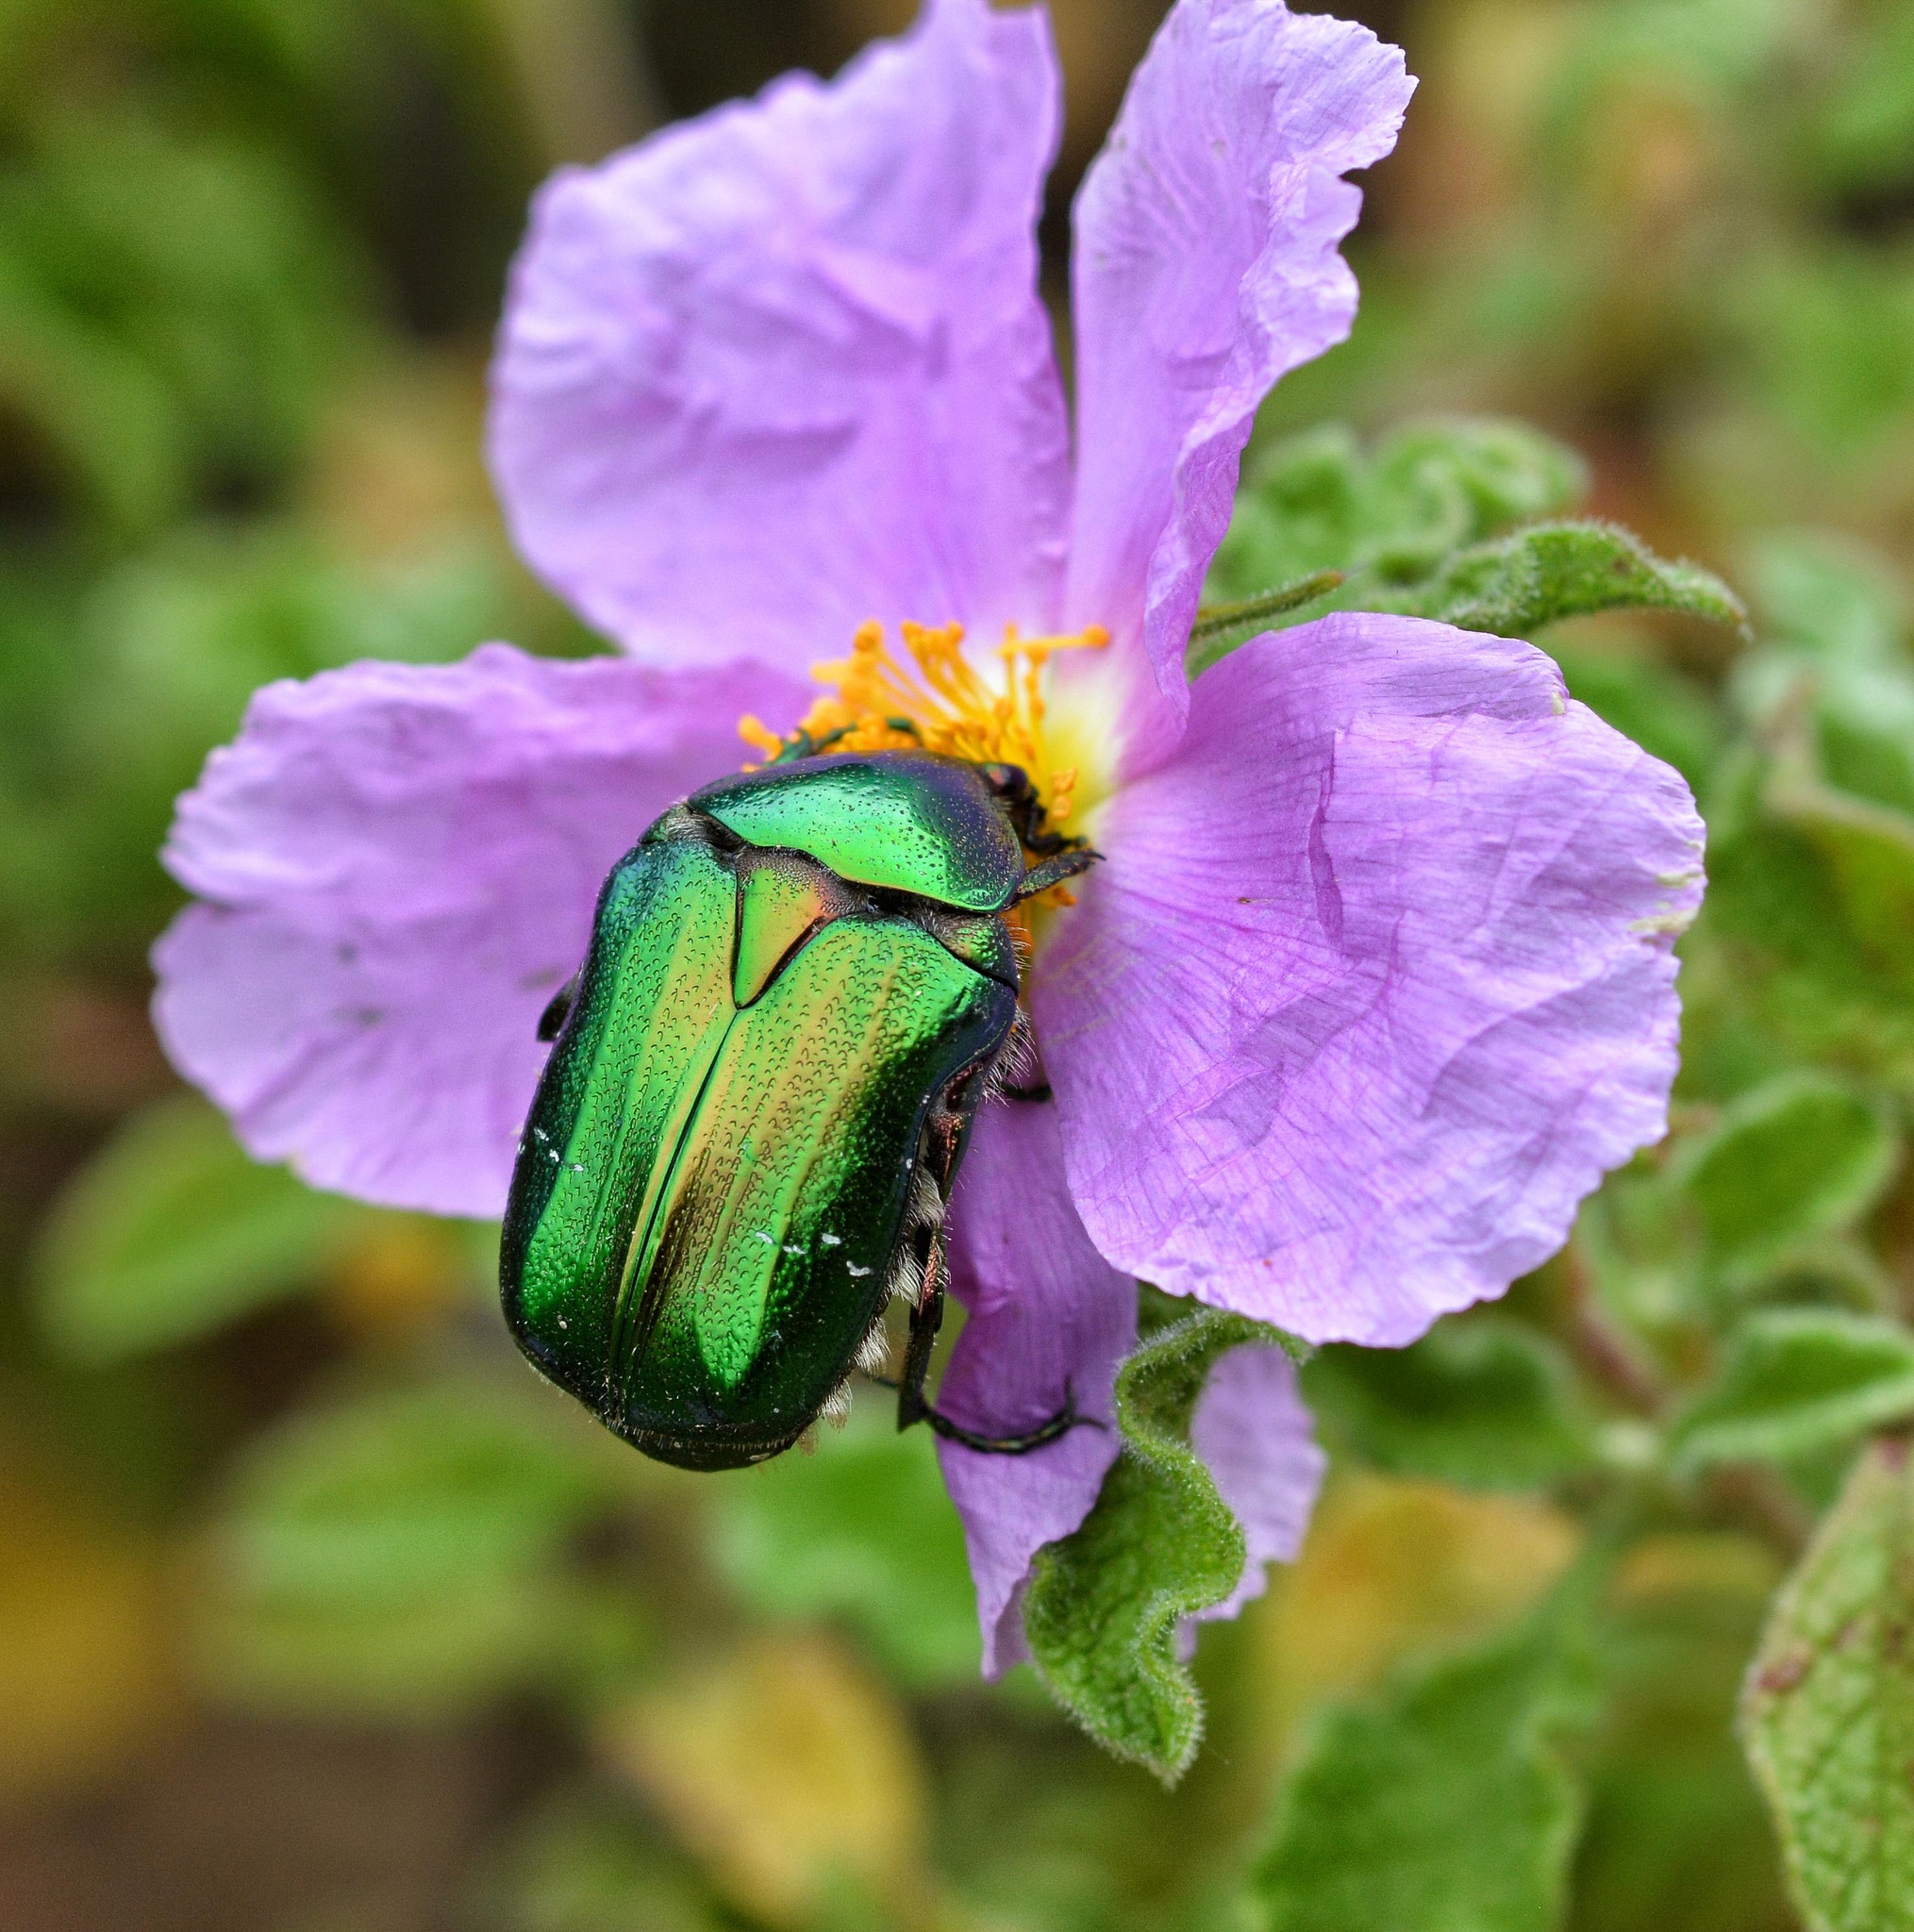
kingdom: Animalia
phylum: Arthropoda
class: Insecta
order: Coleoptera
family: Scarabaeidae
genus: Cetonia
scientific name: Cetonia aurata
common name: Rose chafer
